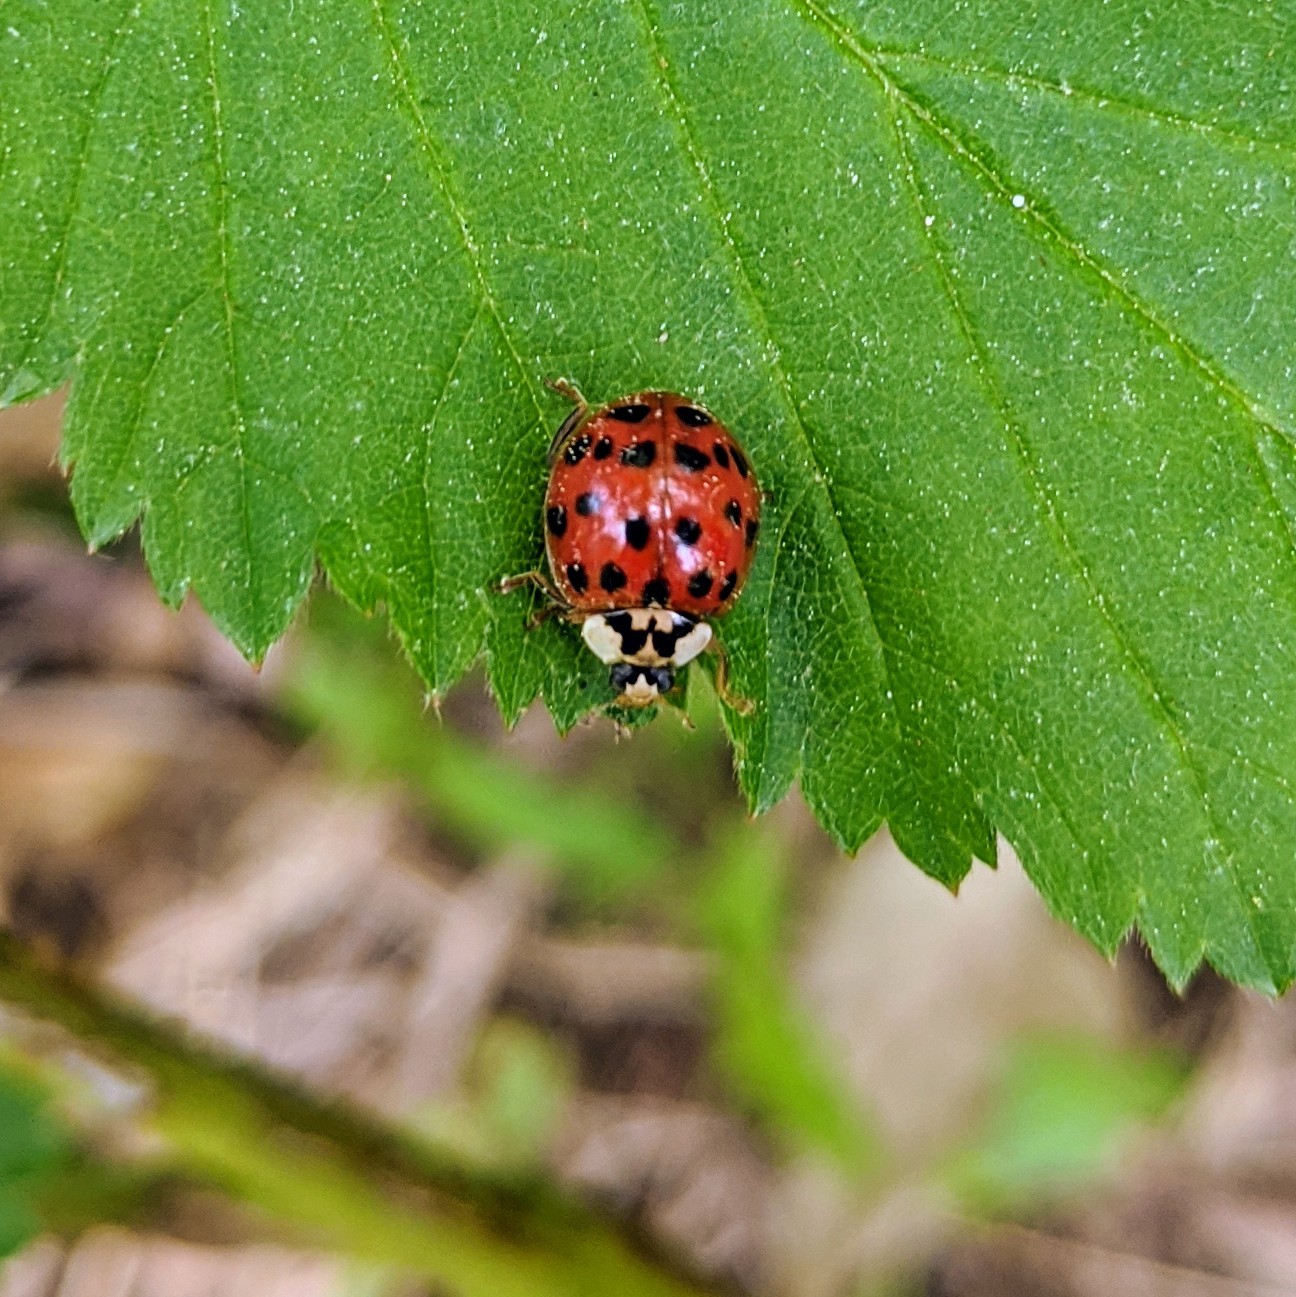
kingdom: Animalia
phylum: Arthropoda
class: Insecta
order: Coleoptera
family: Coccinellidae
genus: Harmonia
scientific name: Harmonia axyridis
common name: Harlequin ladybird
